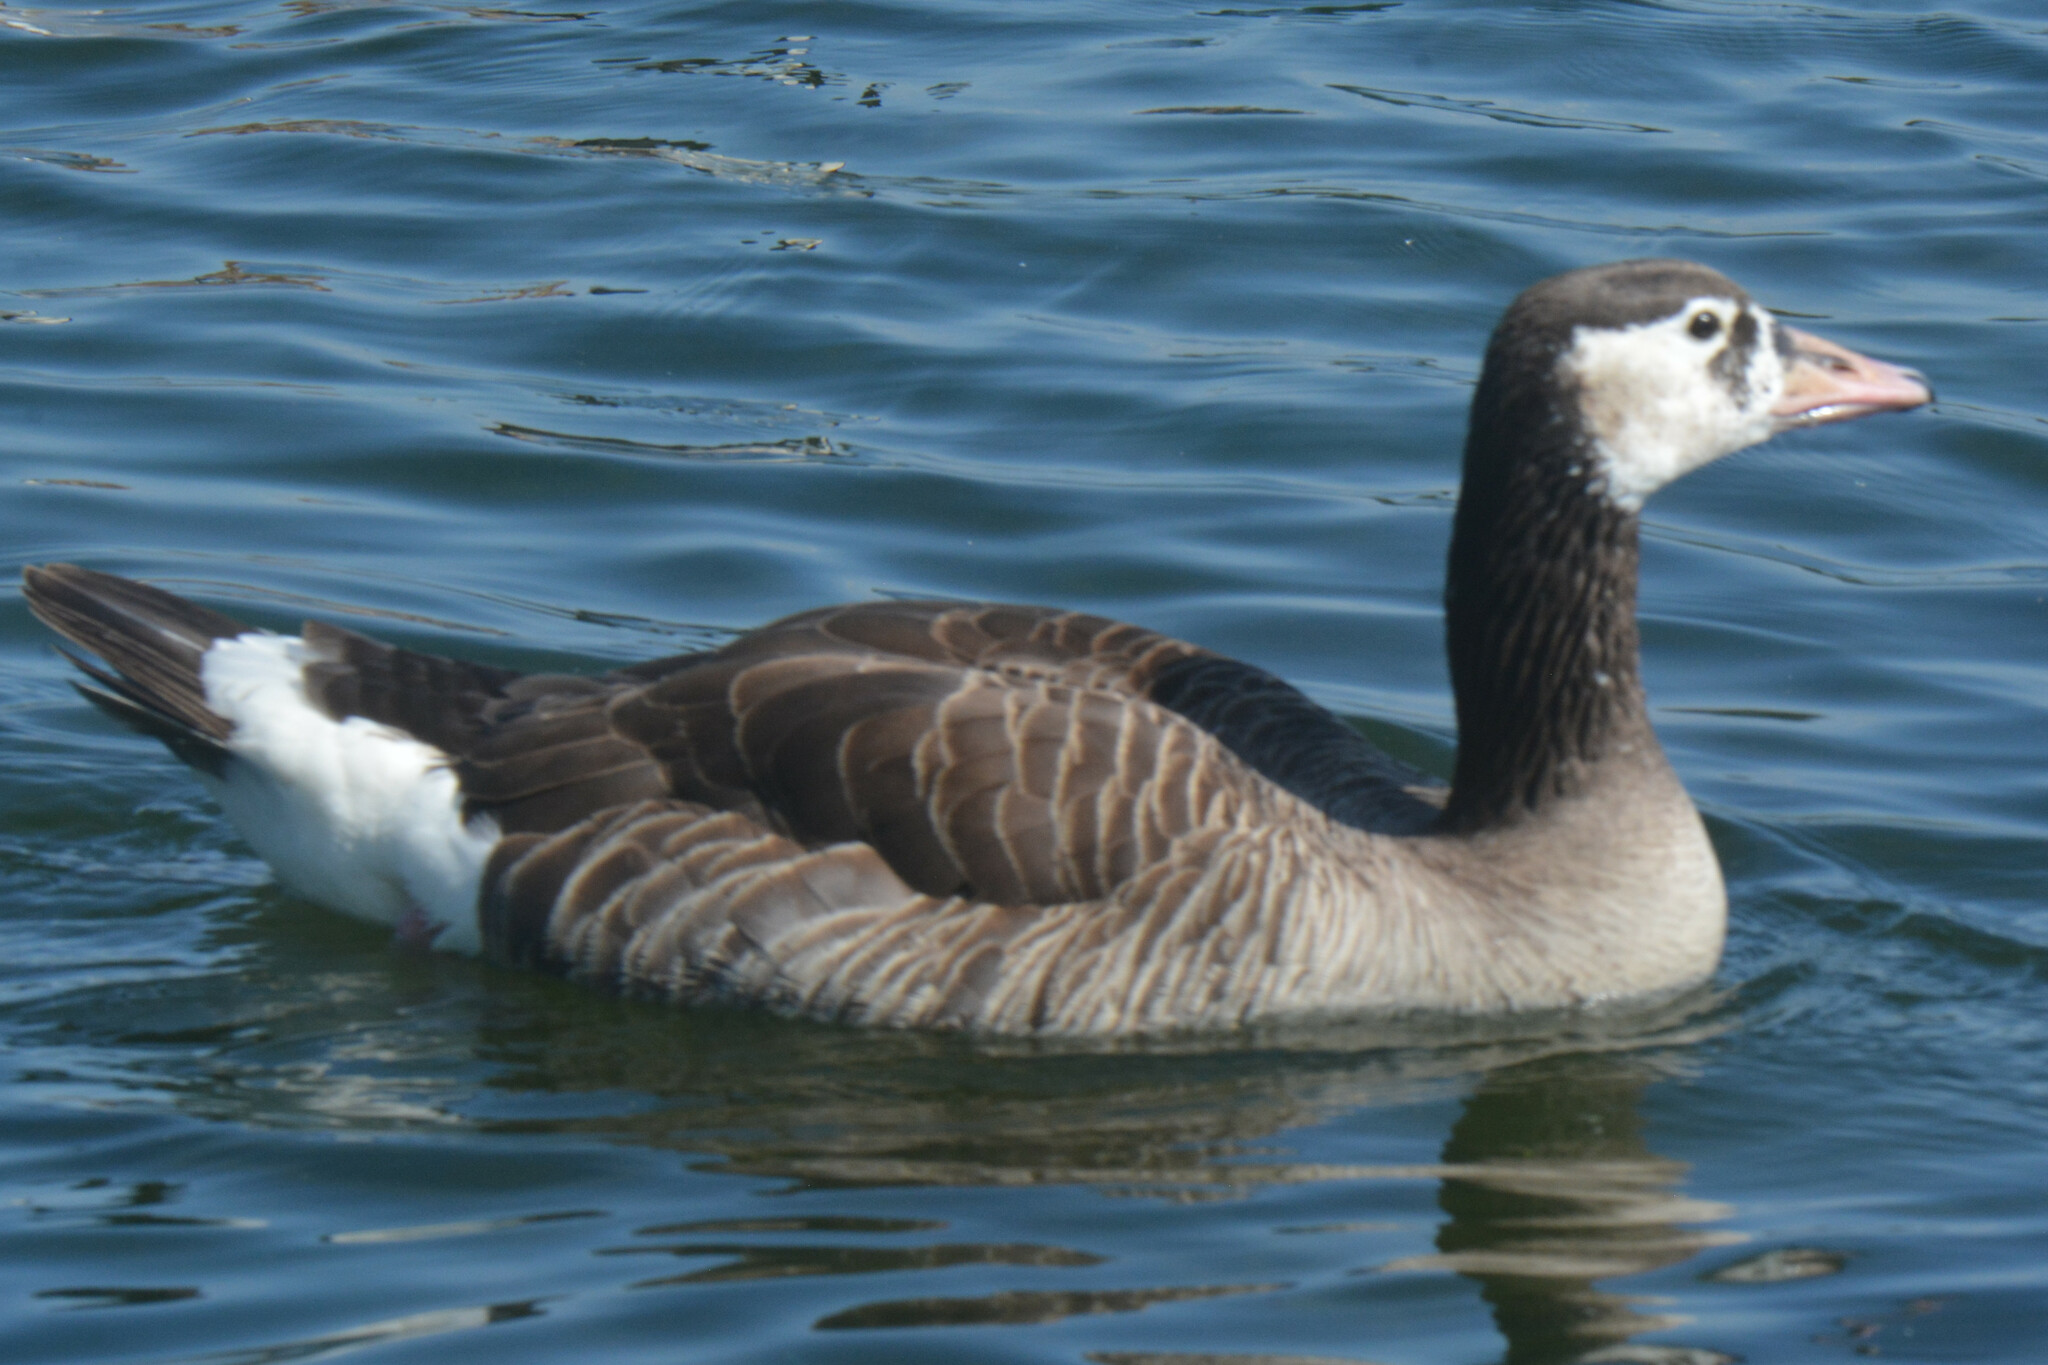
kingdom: Animalia
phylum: Chordata
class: Aves
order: Anseriformes
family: Anatidae
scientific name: Anatidae
